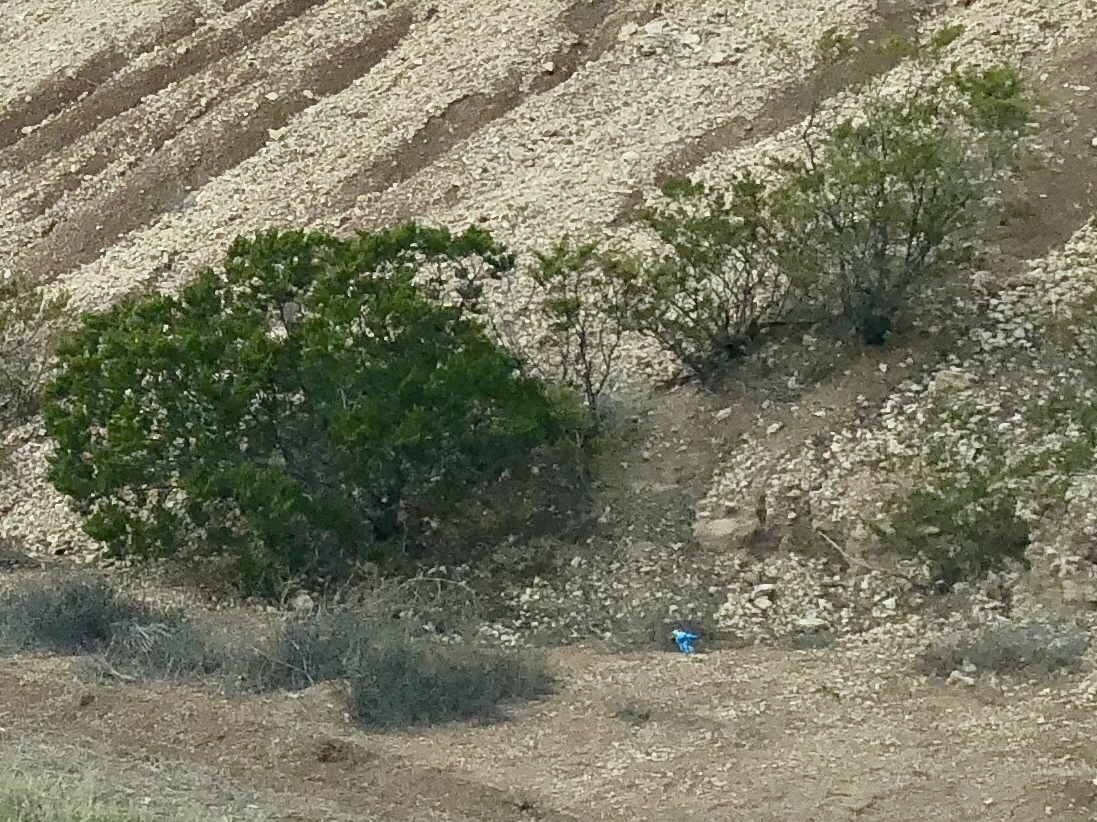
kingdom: Plantae
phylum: Tracheophyta
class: Magnoliopsida
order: Zygophyllales
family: Zygophyllaceae
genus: Larrea
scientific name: Larrea tridentata
